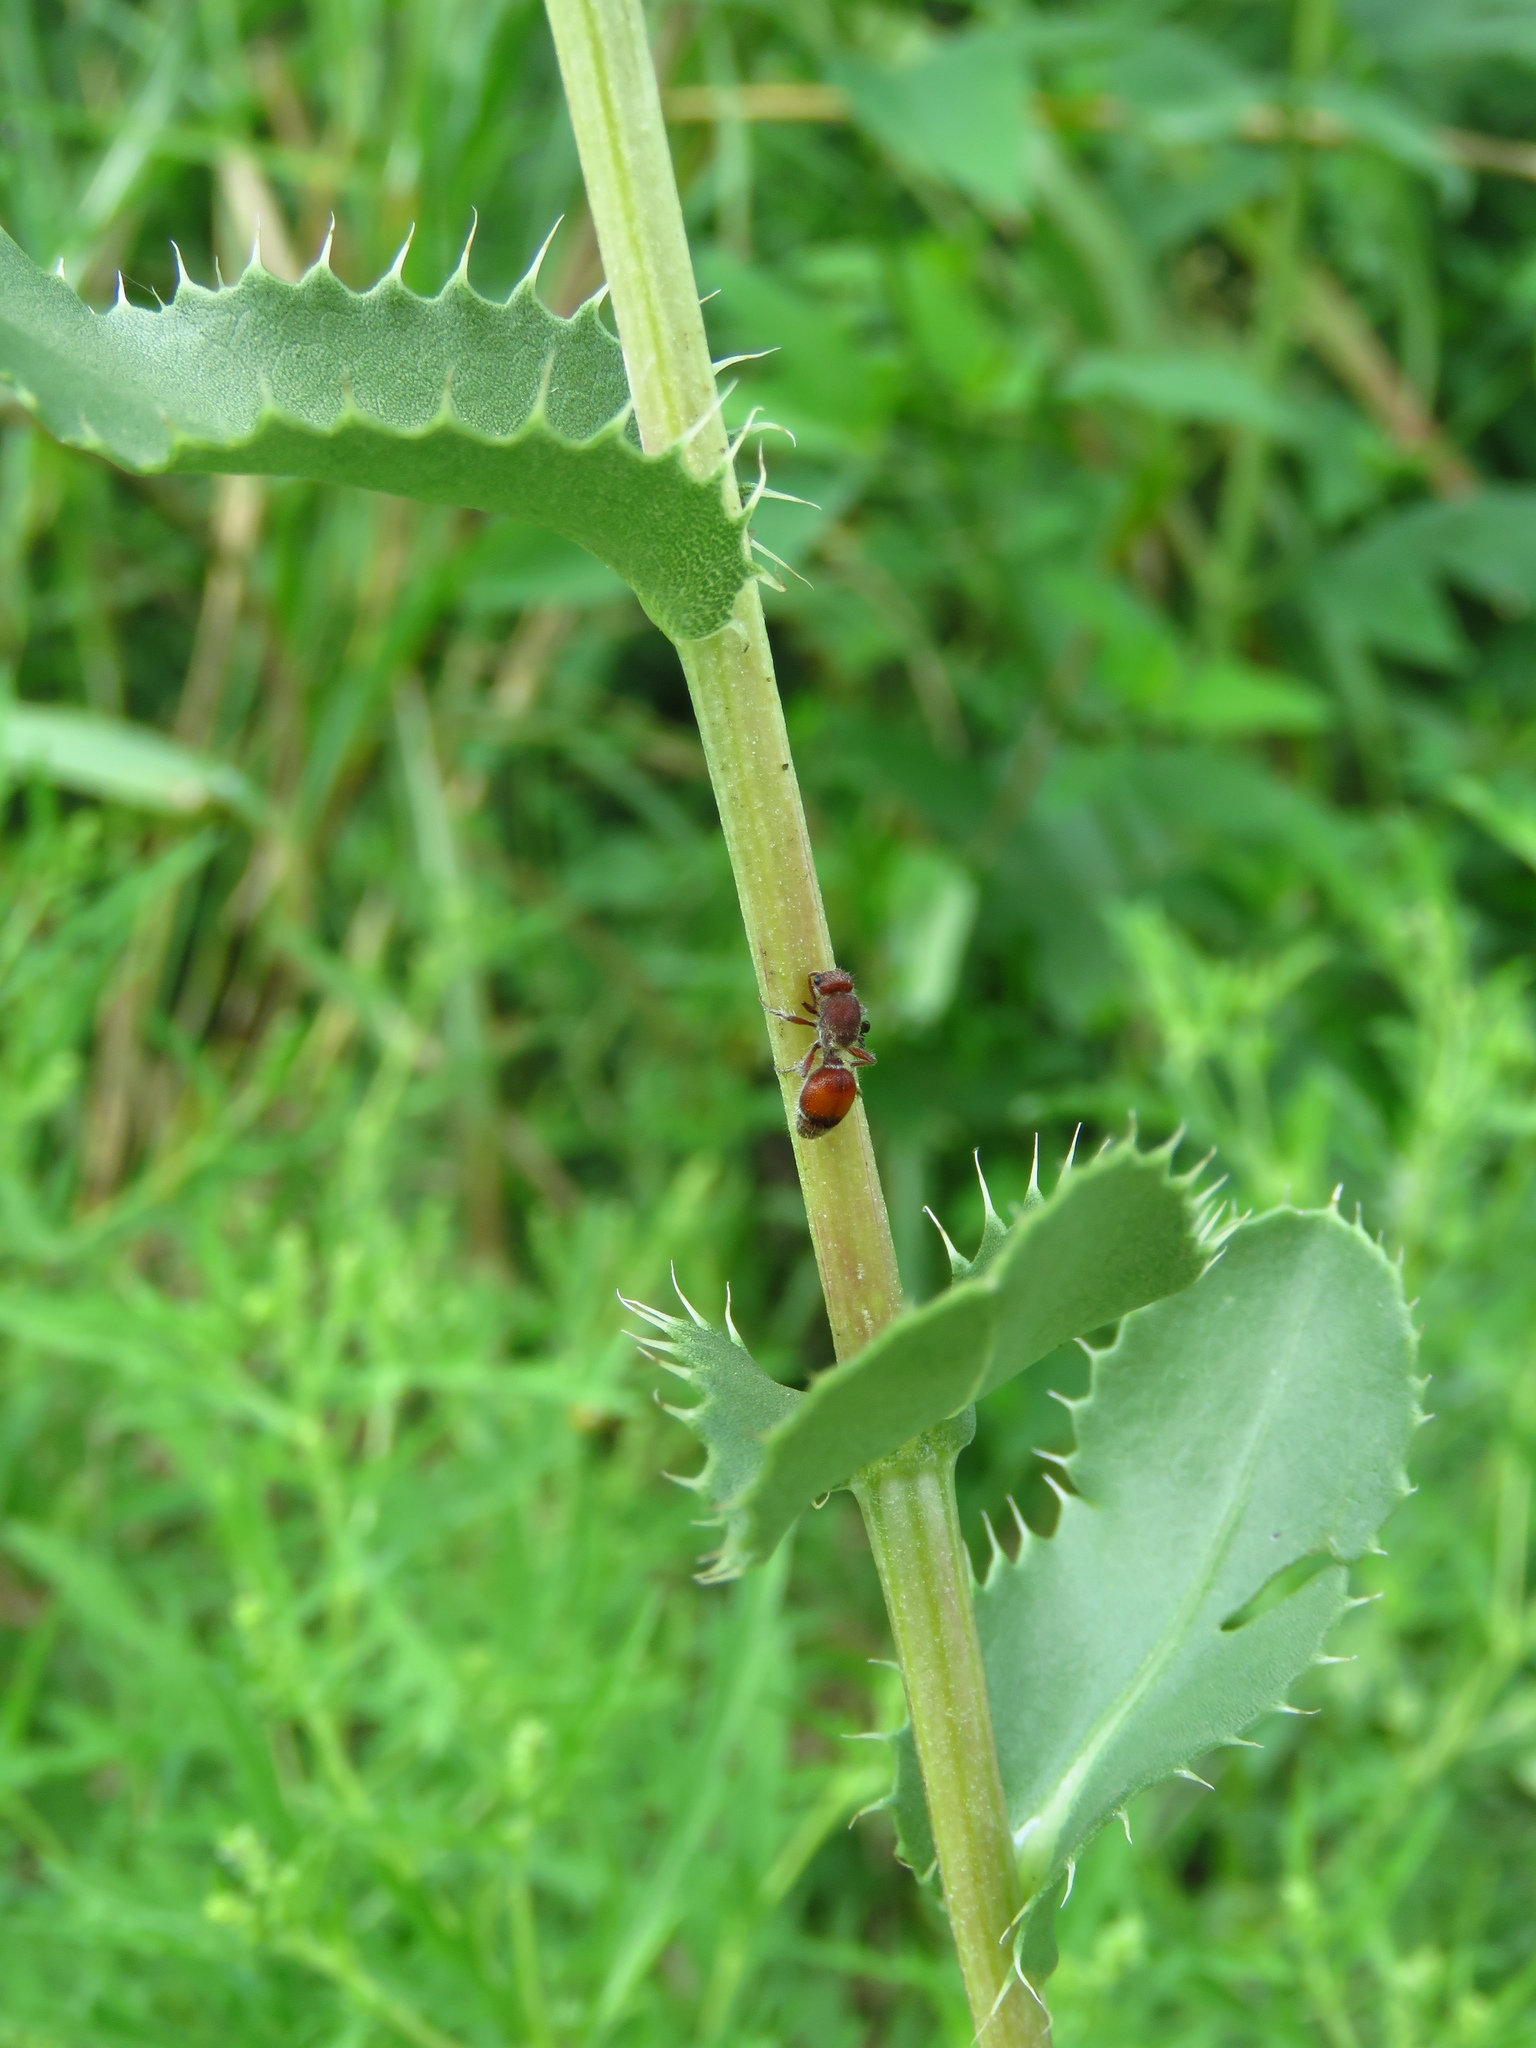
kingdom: Plantae
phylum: Tracheophyta
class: Magnoliopsida
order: Asterales
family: Asteraceae
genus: Grindelia
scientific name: Grindelia ciliata
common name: Goldenweed
